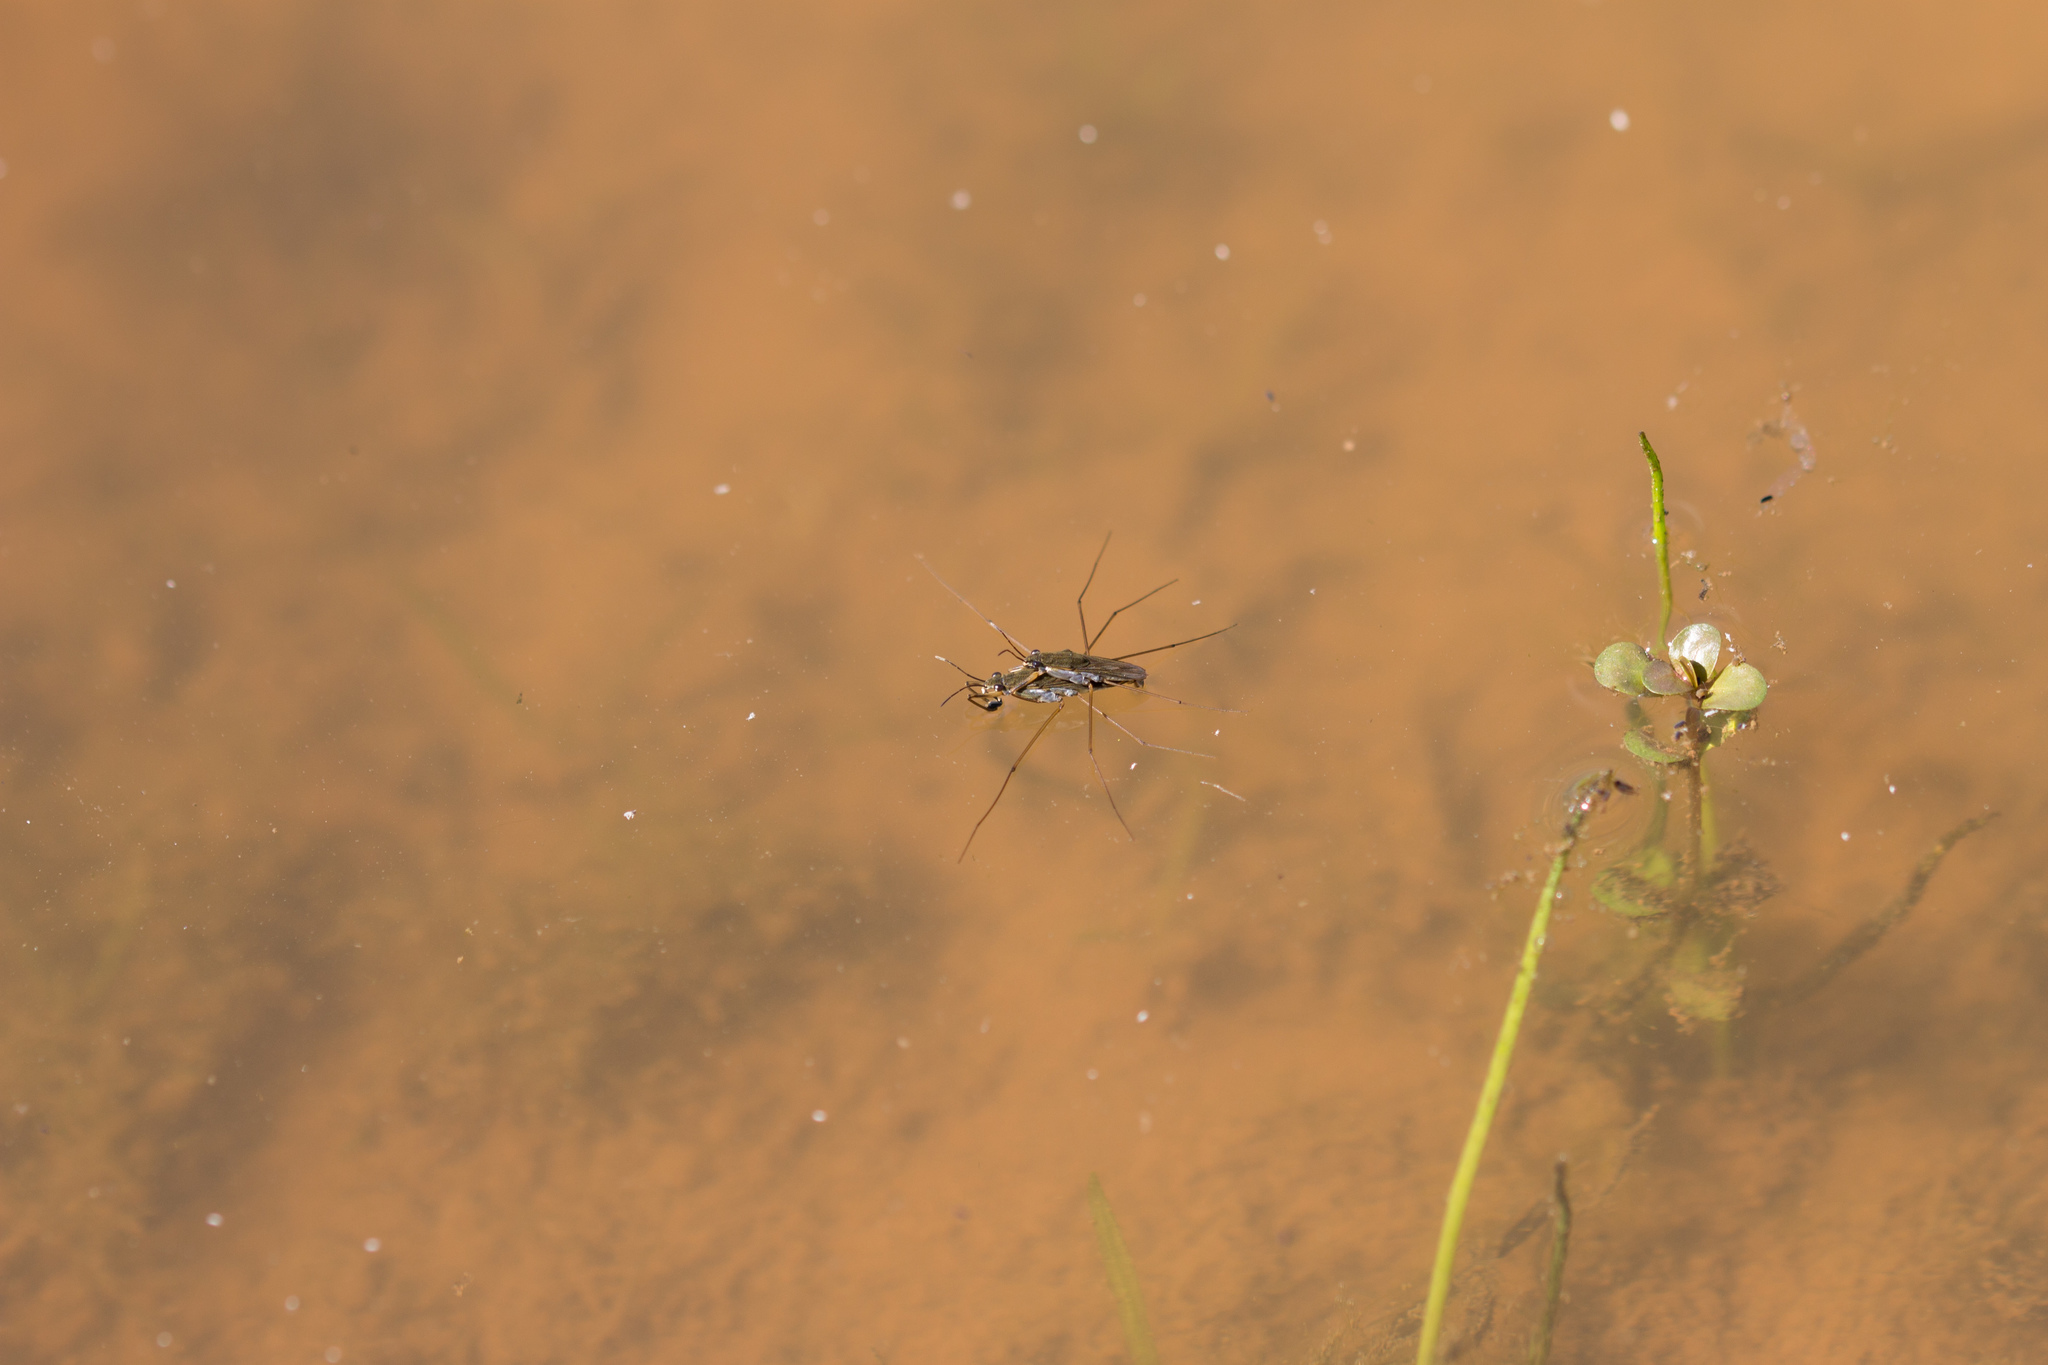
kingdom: Animalia
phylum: Arthropoda
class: Insecta
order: Hemiptera
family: Gerridae
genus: Gerris
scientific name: Gerris
